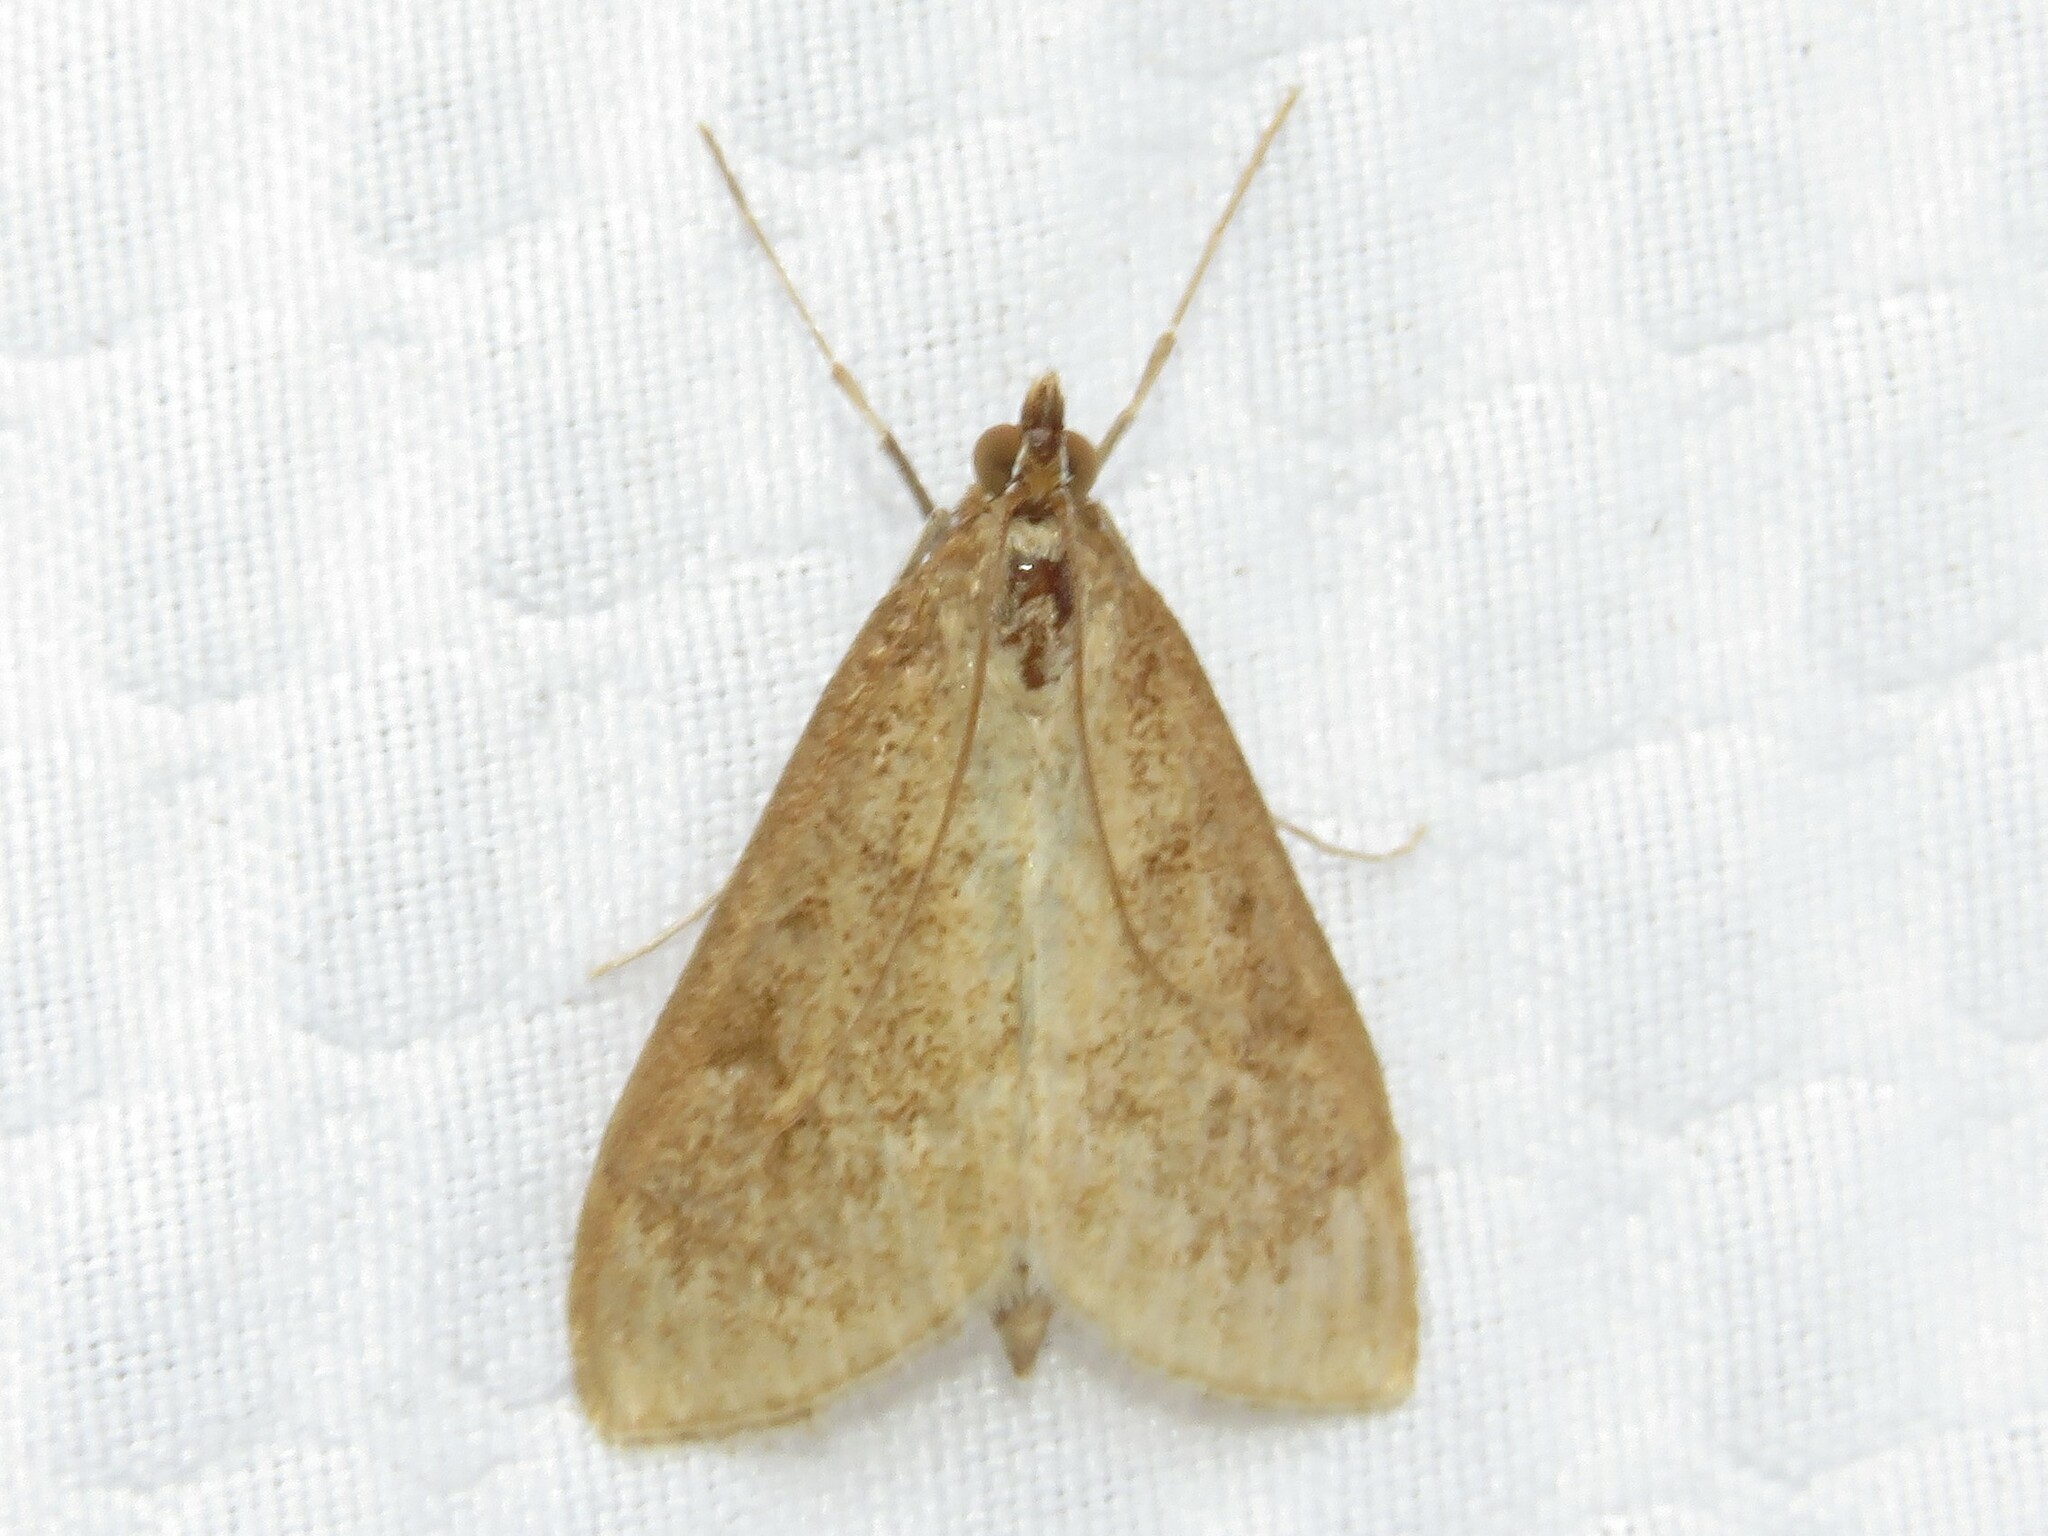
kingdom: Animalia
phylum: Arthropoda
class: Insecta
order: Lepidoptera
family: Crambidae
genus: Saucrobotys
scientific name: Saucrobotys futilalis
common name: Dogbane saucrobotys moth
